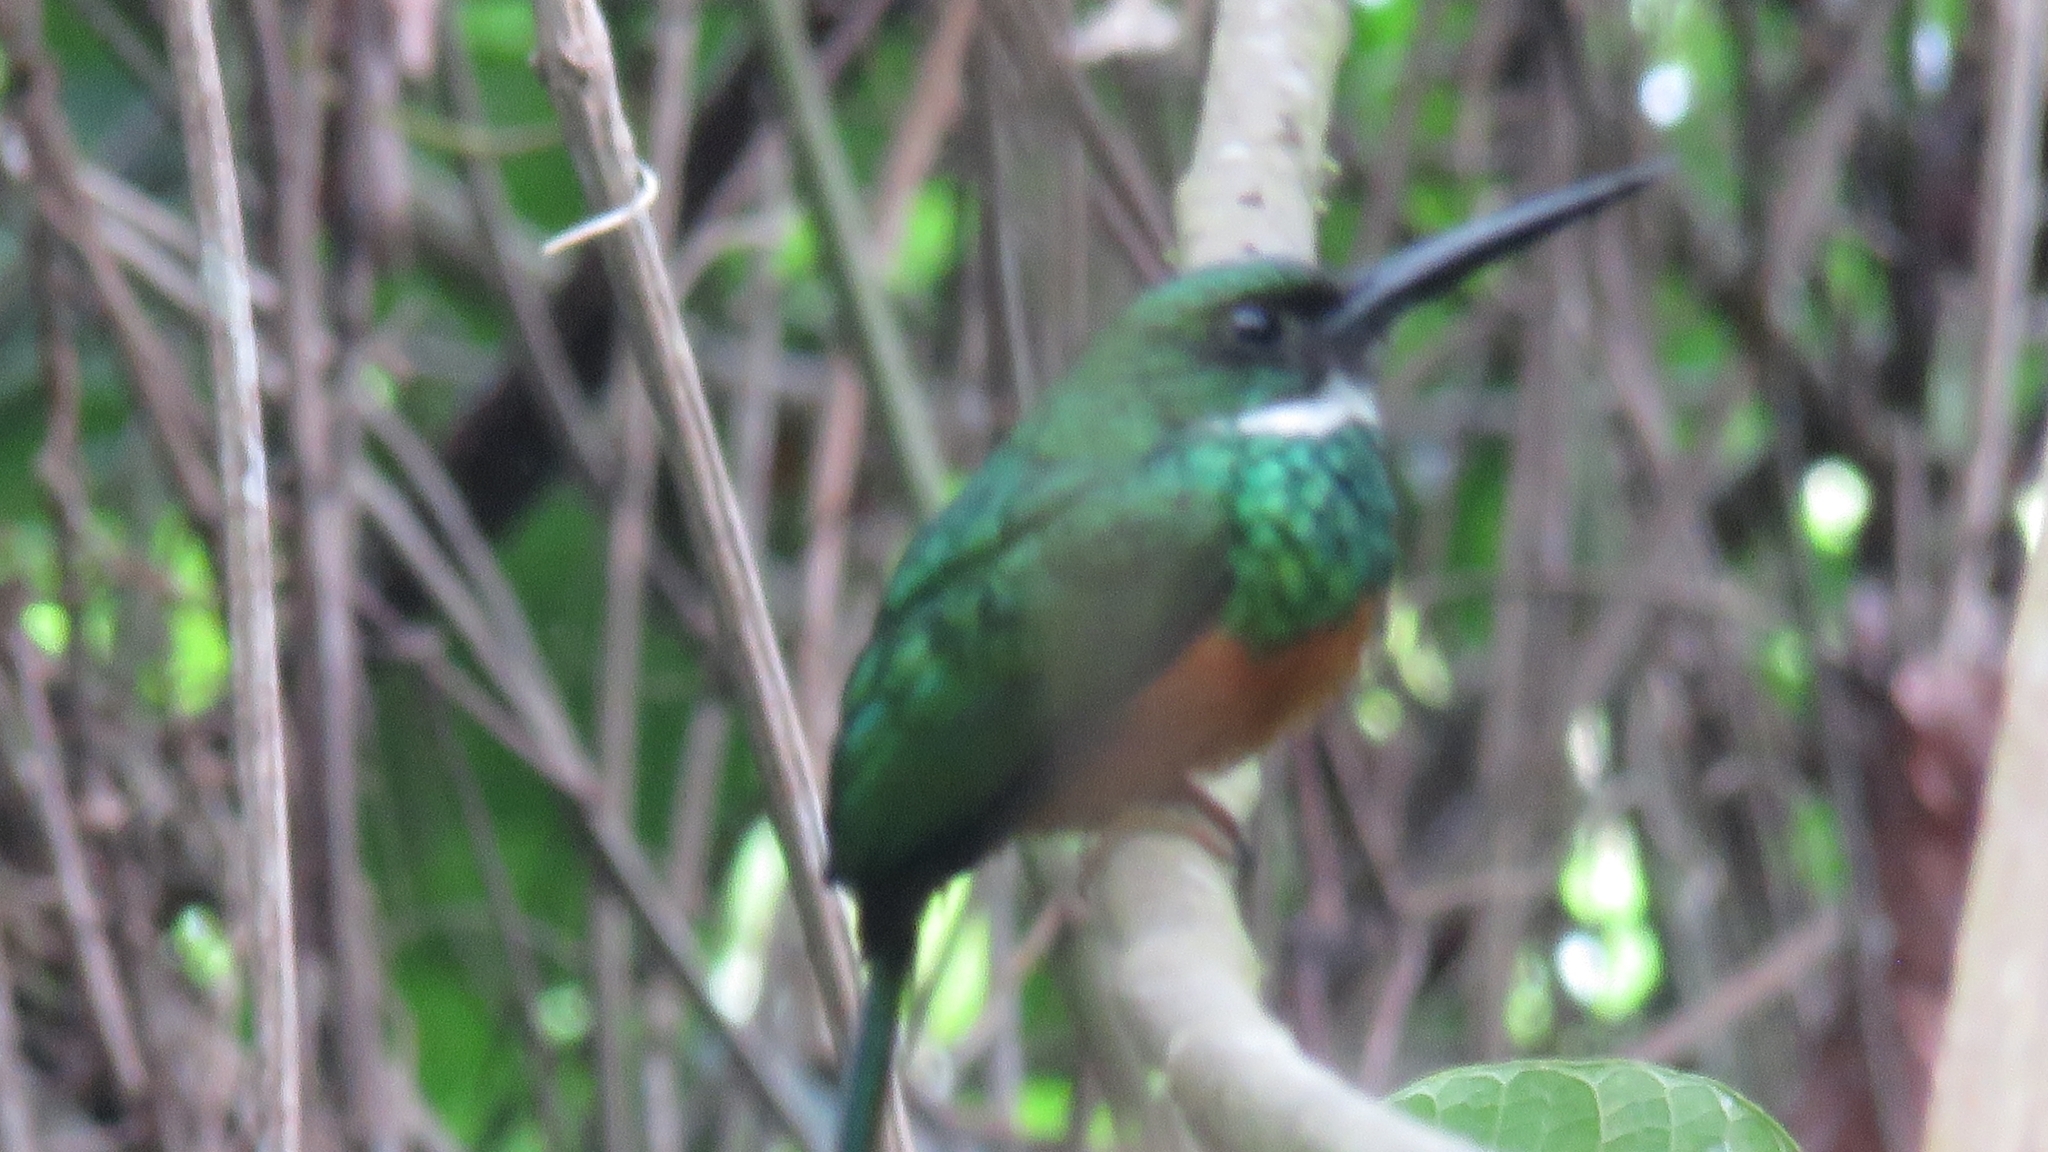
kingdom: Animalia
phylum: Chordata
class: Aves
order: Piciformes
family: Galbulidae
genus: Galbula
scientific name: Galbula ruficauda
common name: Rufous-tailed jacamar
